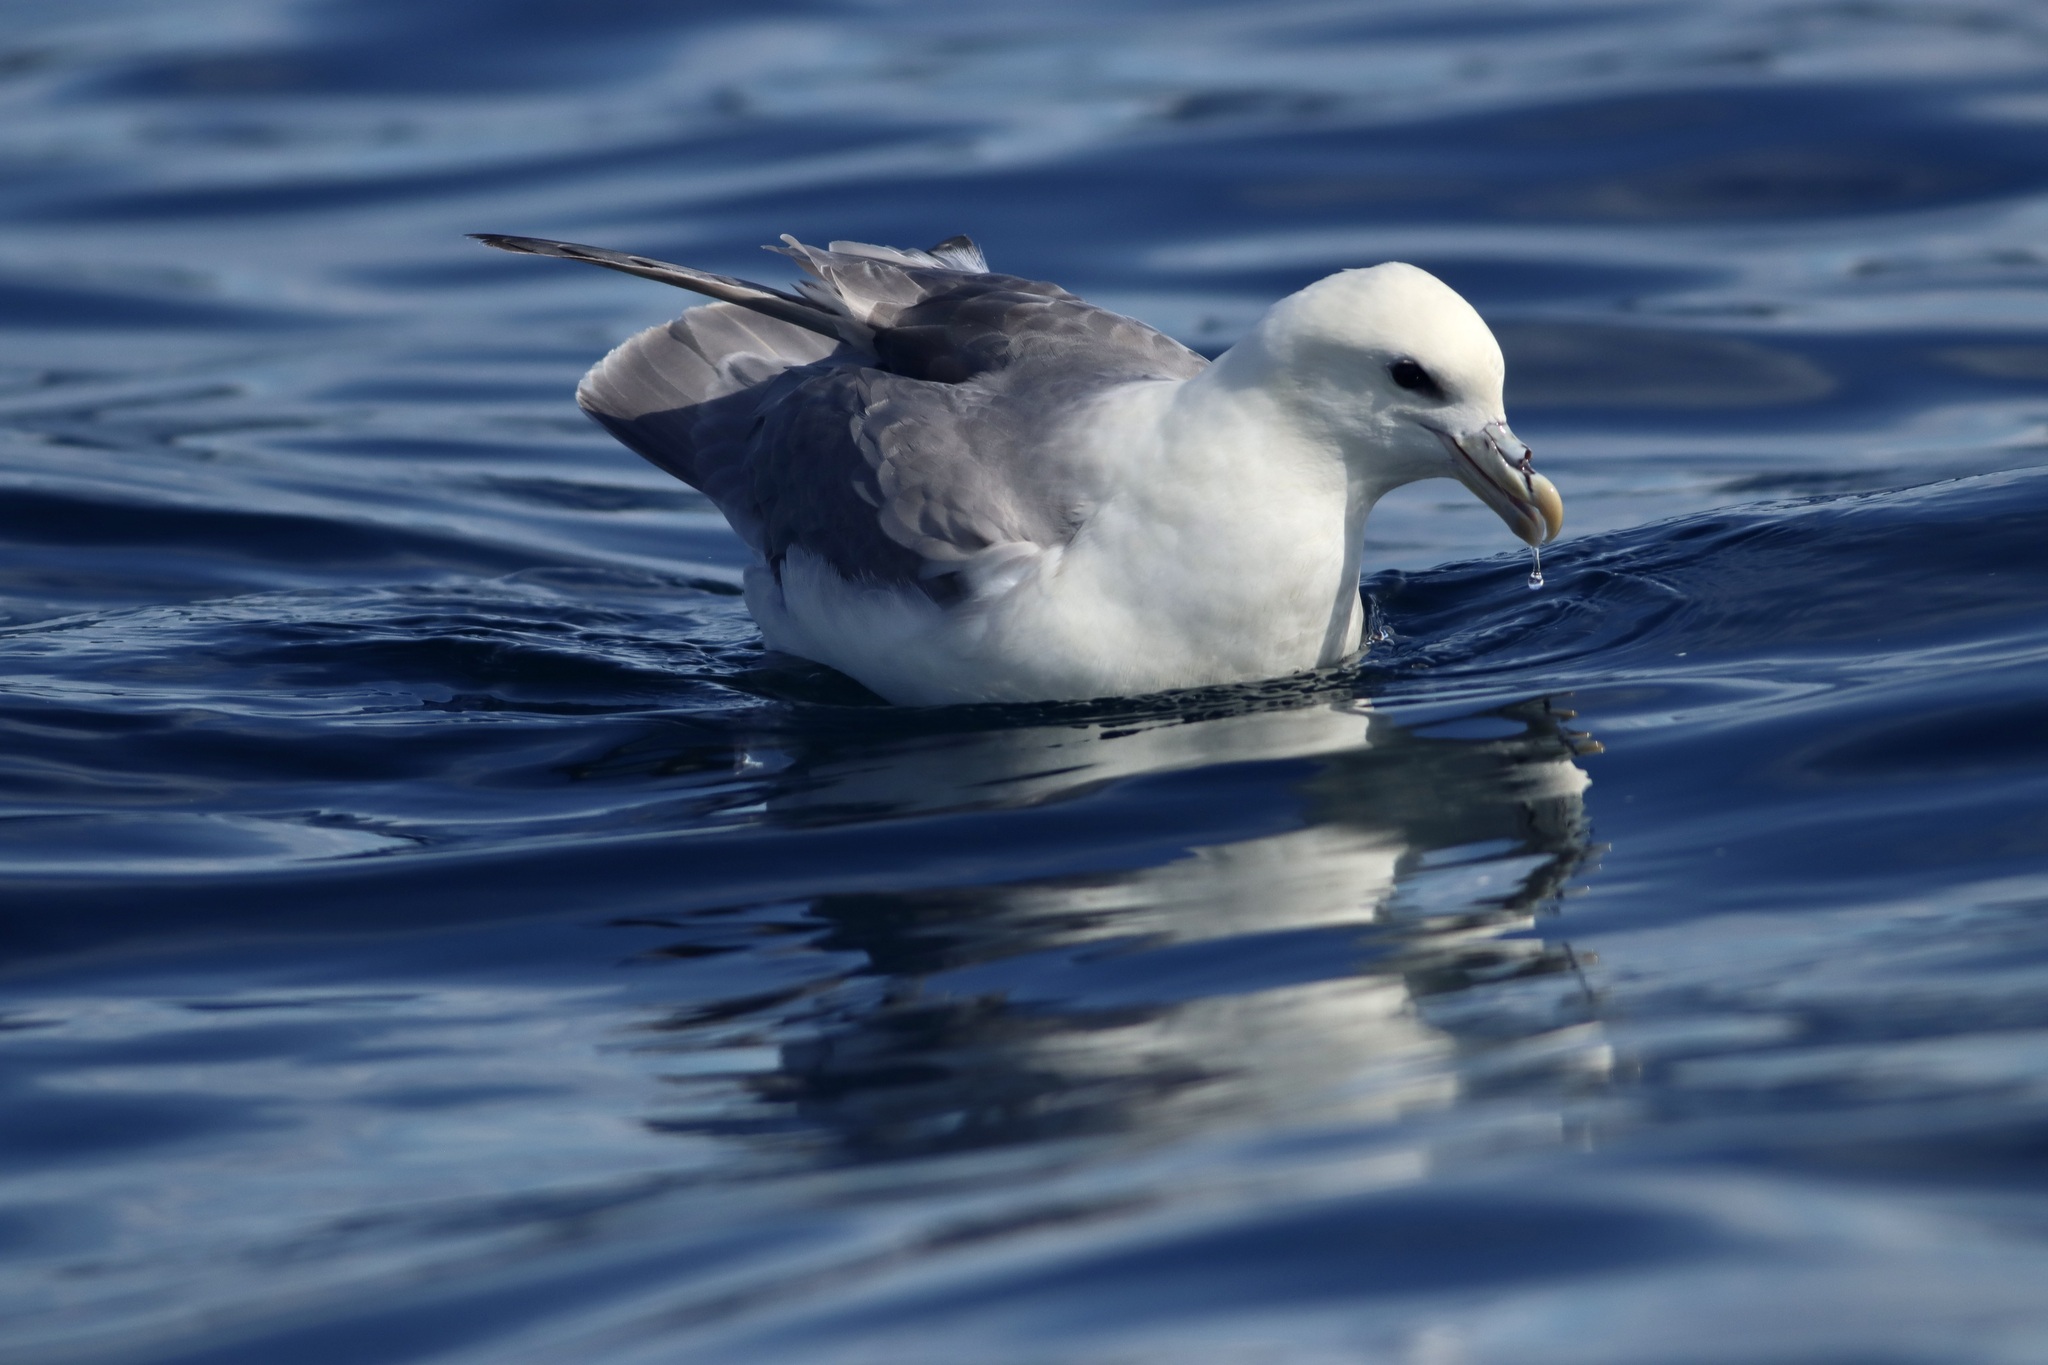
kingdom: Animalia
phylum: Chordata
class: Aves
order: Procellariiformes
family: Procellariidae
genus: Fulmarus
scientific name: Fulmarus glacialis
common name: Northern fulmar
